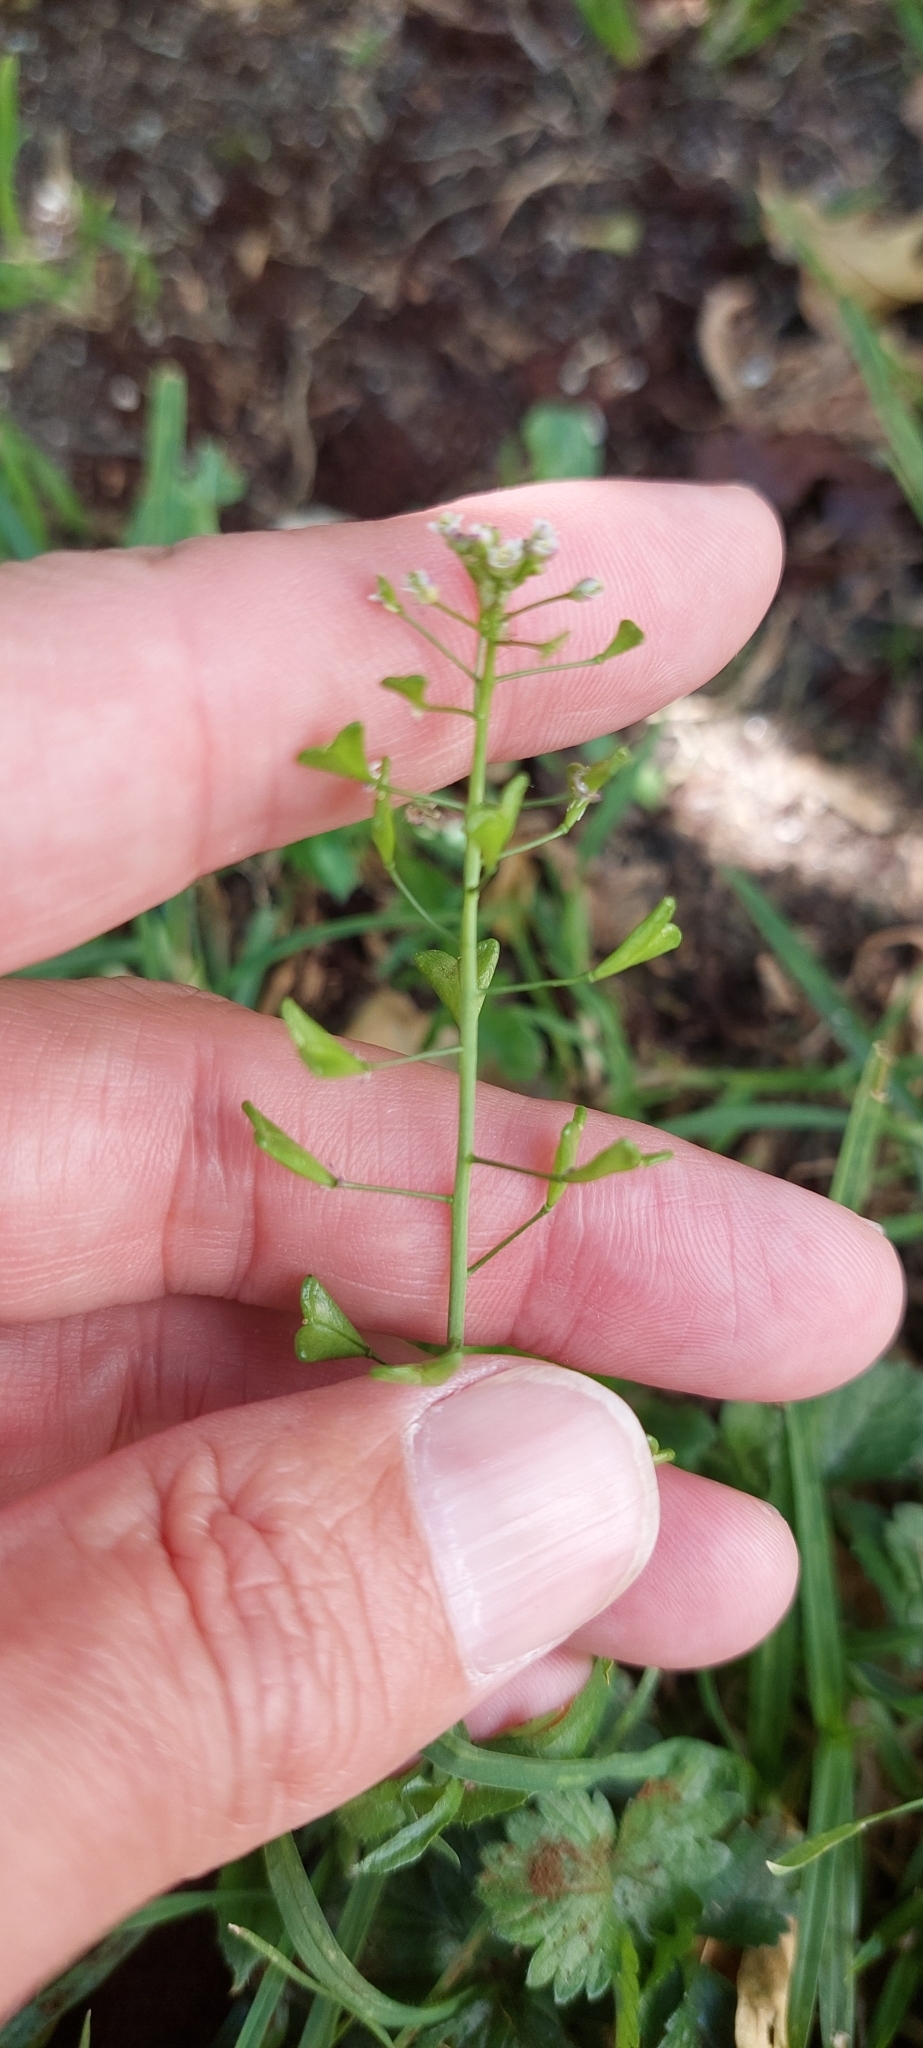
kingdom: Plantae
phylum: Tracheophyta
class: Magnoliopsida
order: Brassicales
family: Brassicaceae
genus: Capsella
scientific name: Capsella bursa-pastoris
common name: Shepherd's purse
